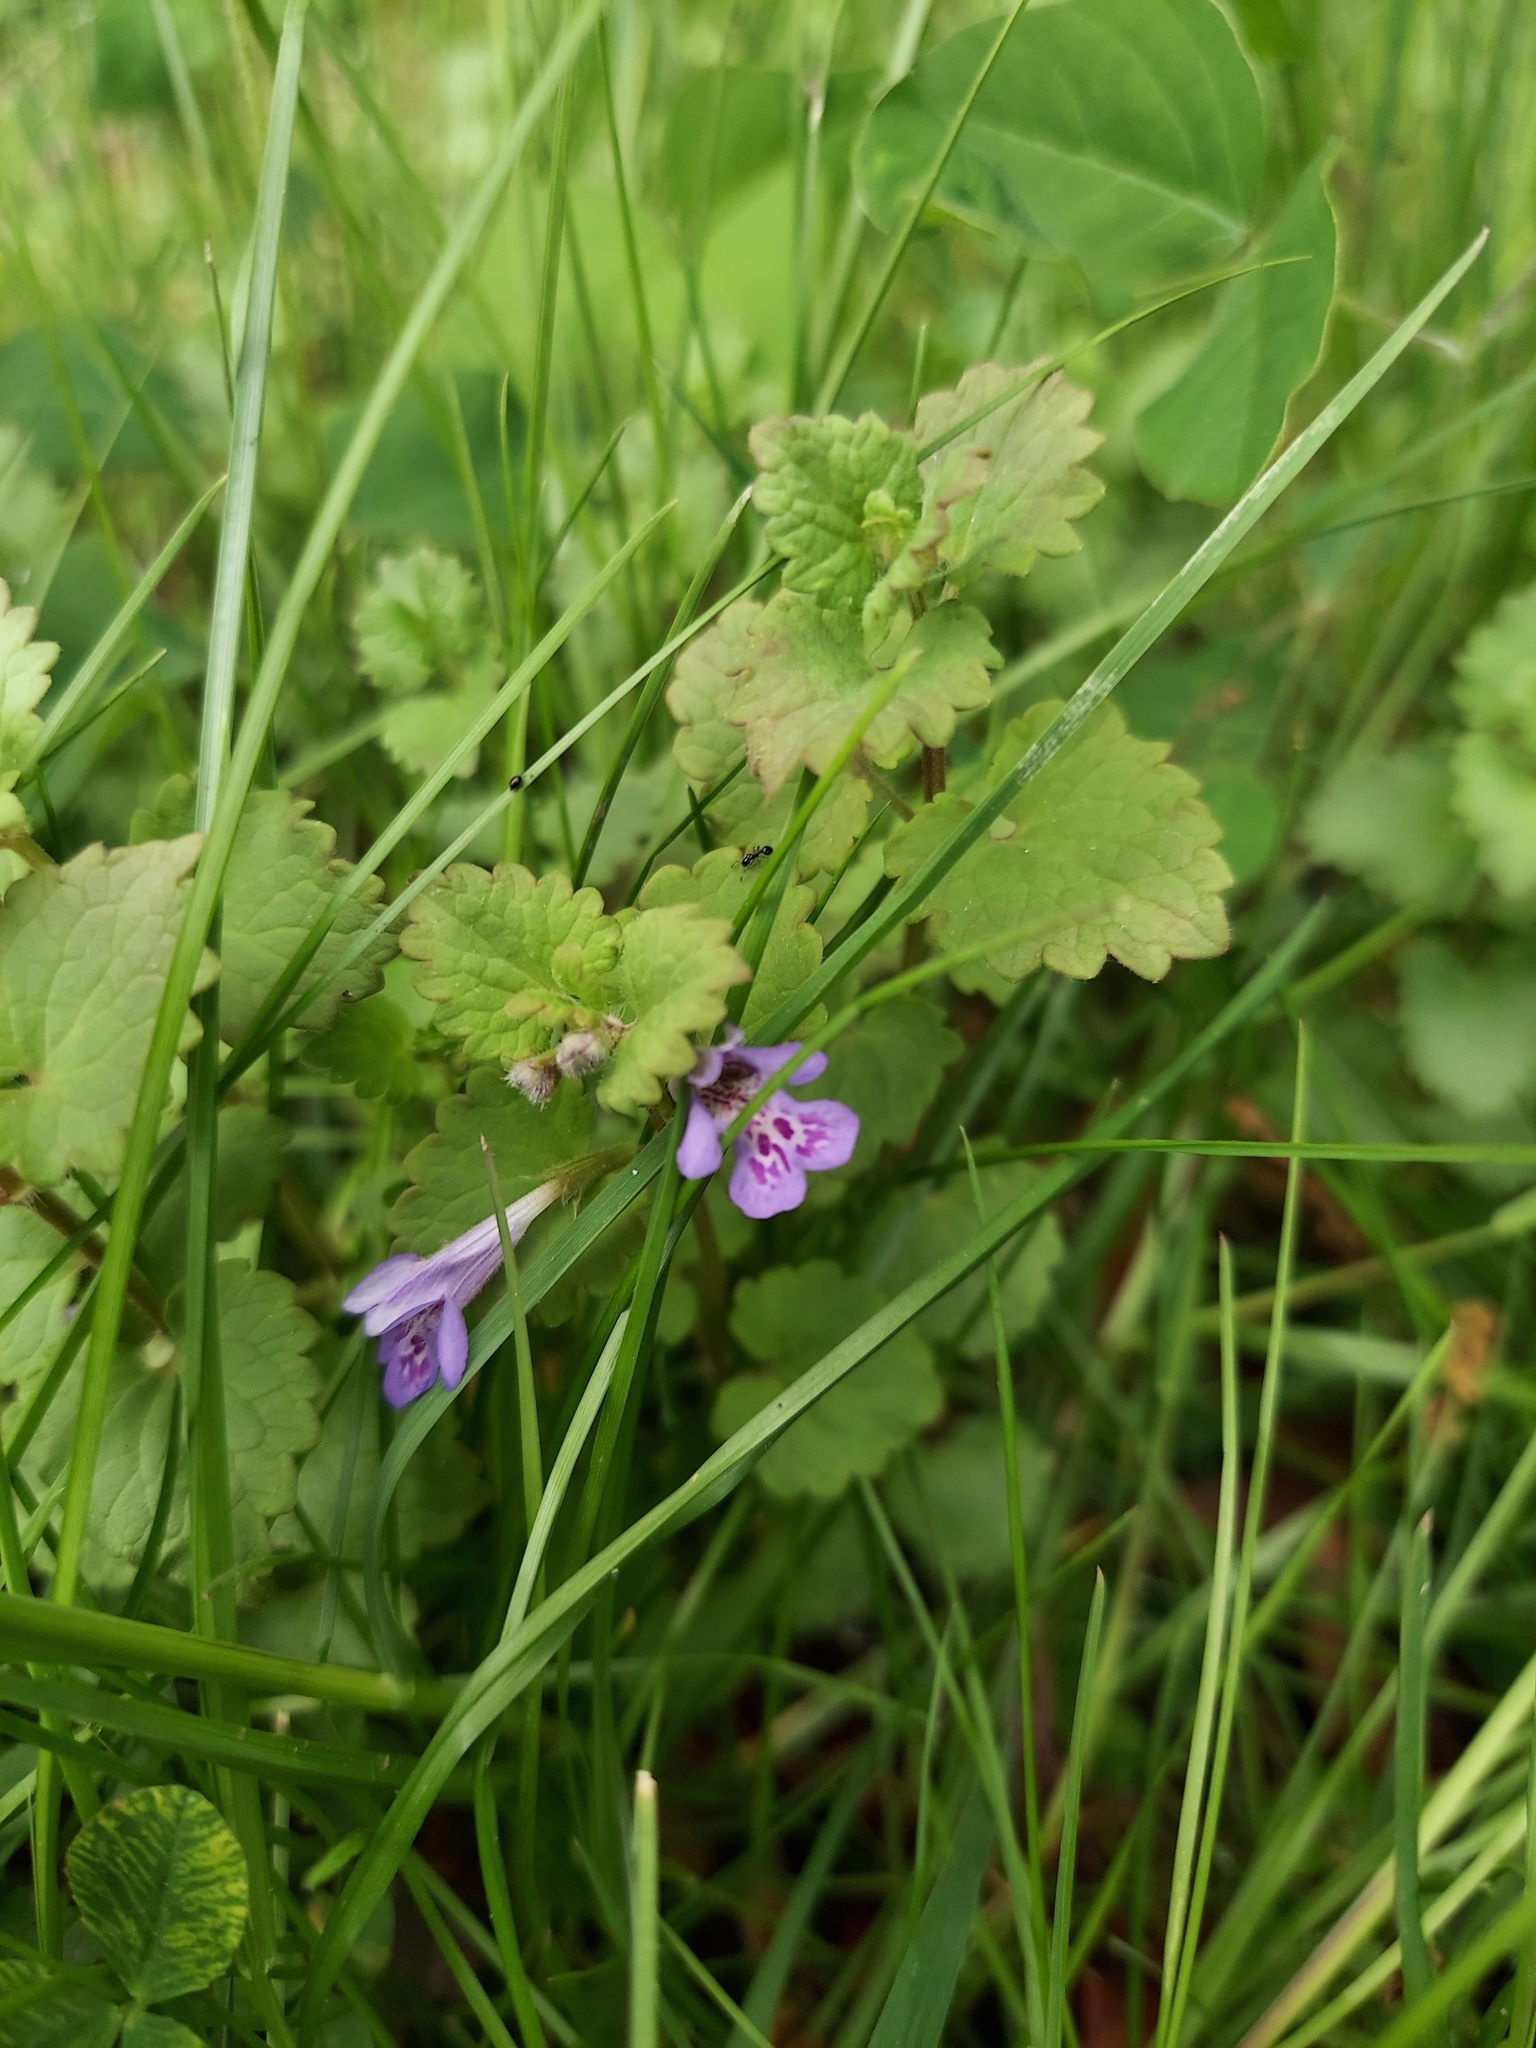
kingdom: Plantae
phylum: Tracheophyta
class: Magnoliopsida
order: Lamiales
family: Lamiaceae
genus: Glechoma
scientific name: Glechoma hederacea
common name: Ground ivy
